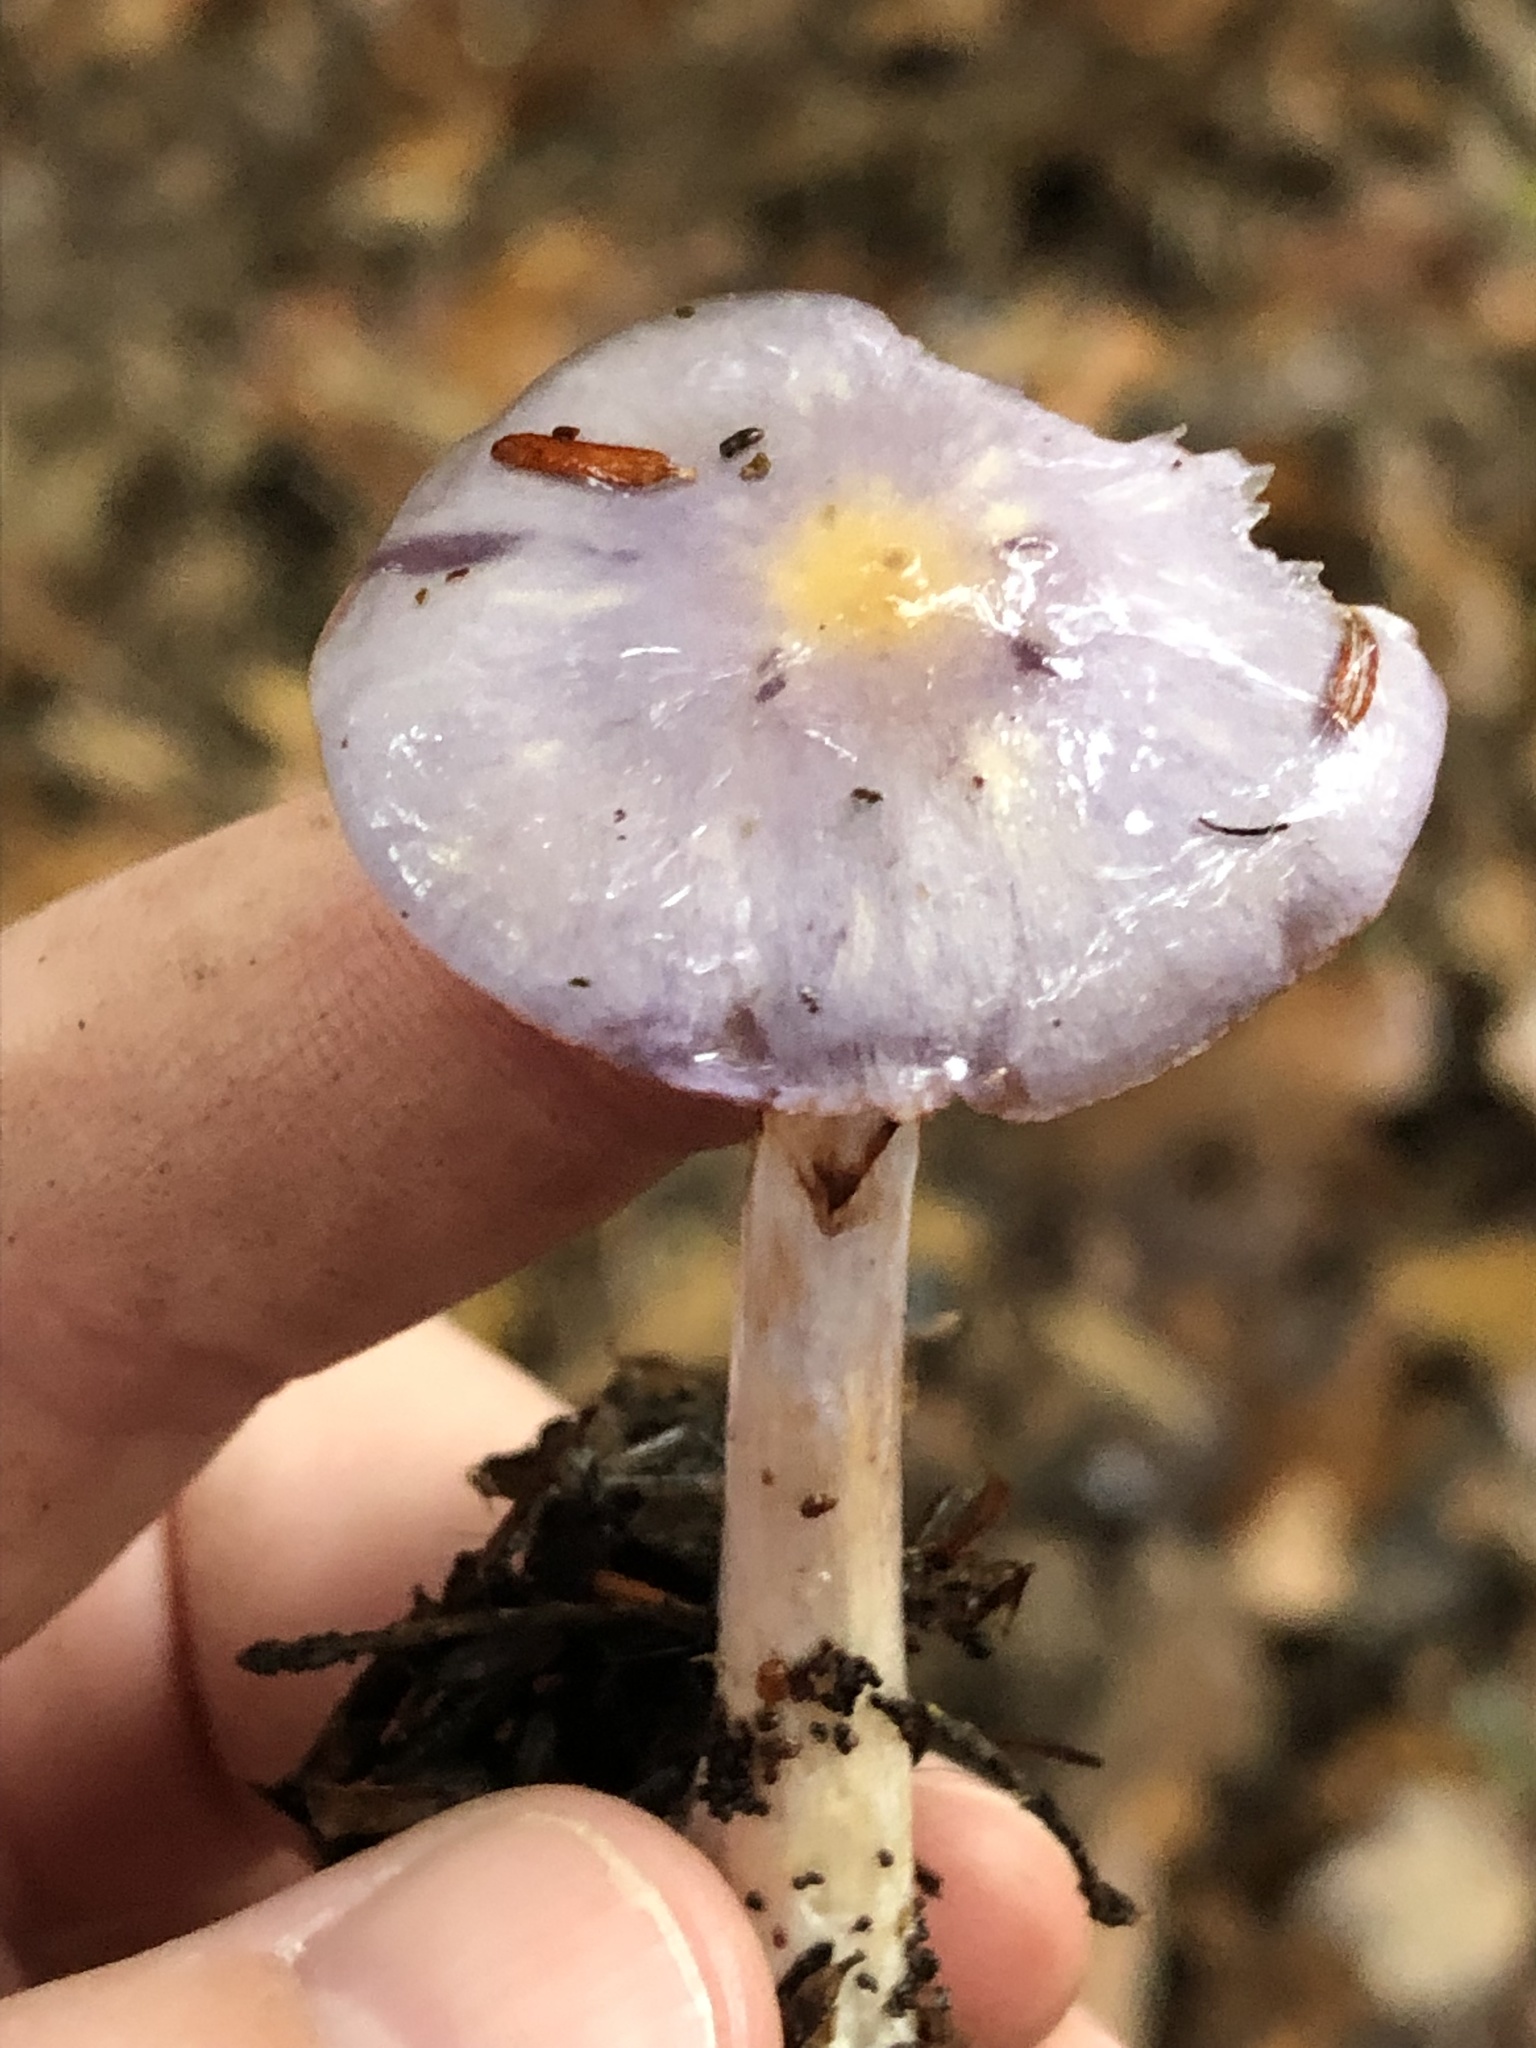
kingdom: Fungi
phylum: Basidiomycota
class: Agaricomycetes
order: Agaricales
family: Cortinariaceae
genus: Cortinarius
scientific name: Cortinarius iodes
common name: Viscid violet cort
